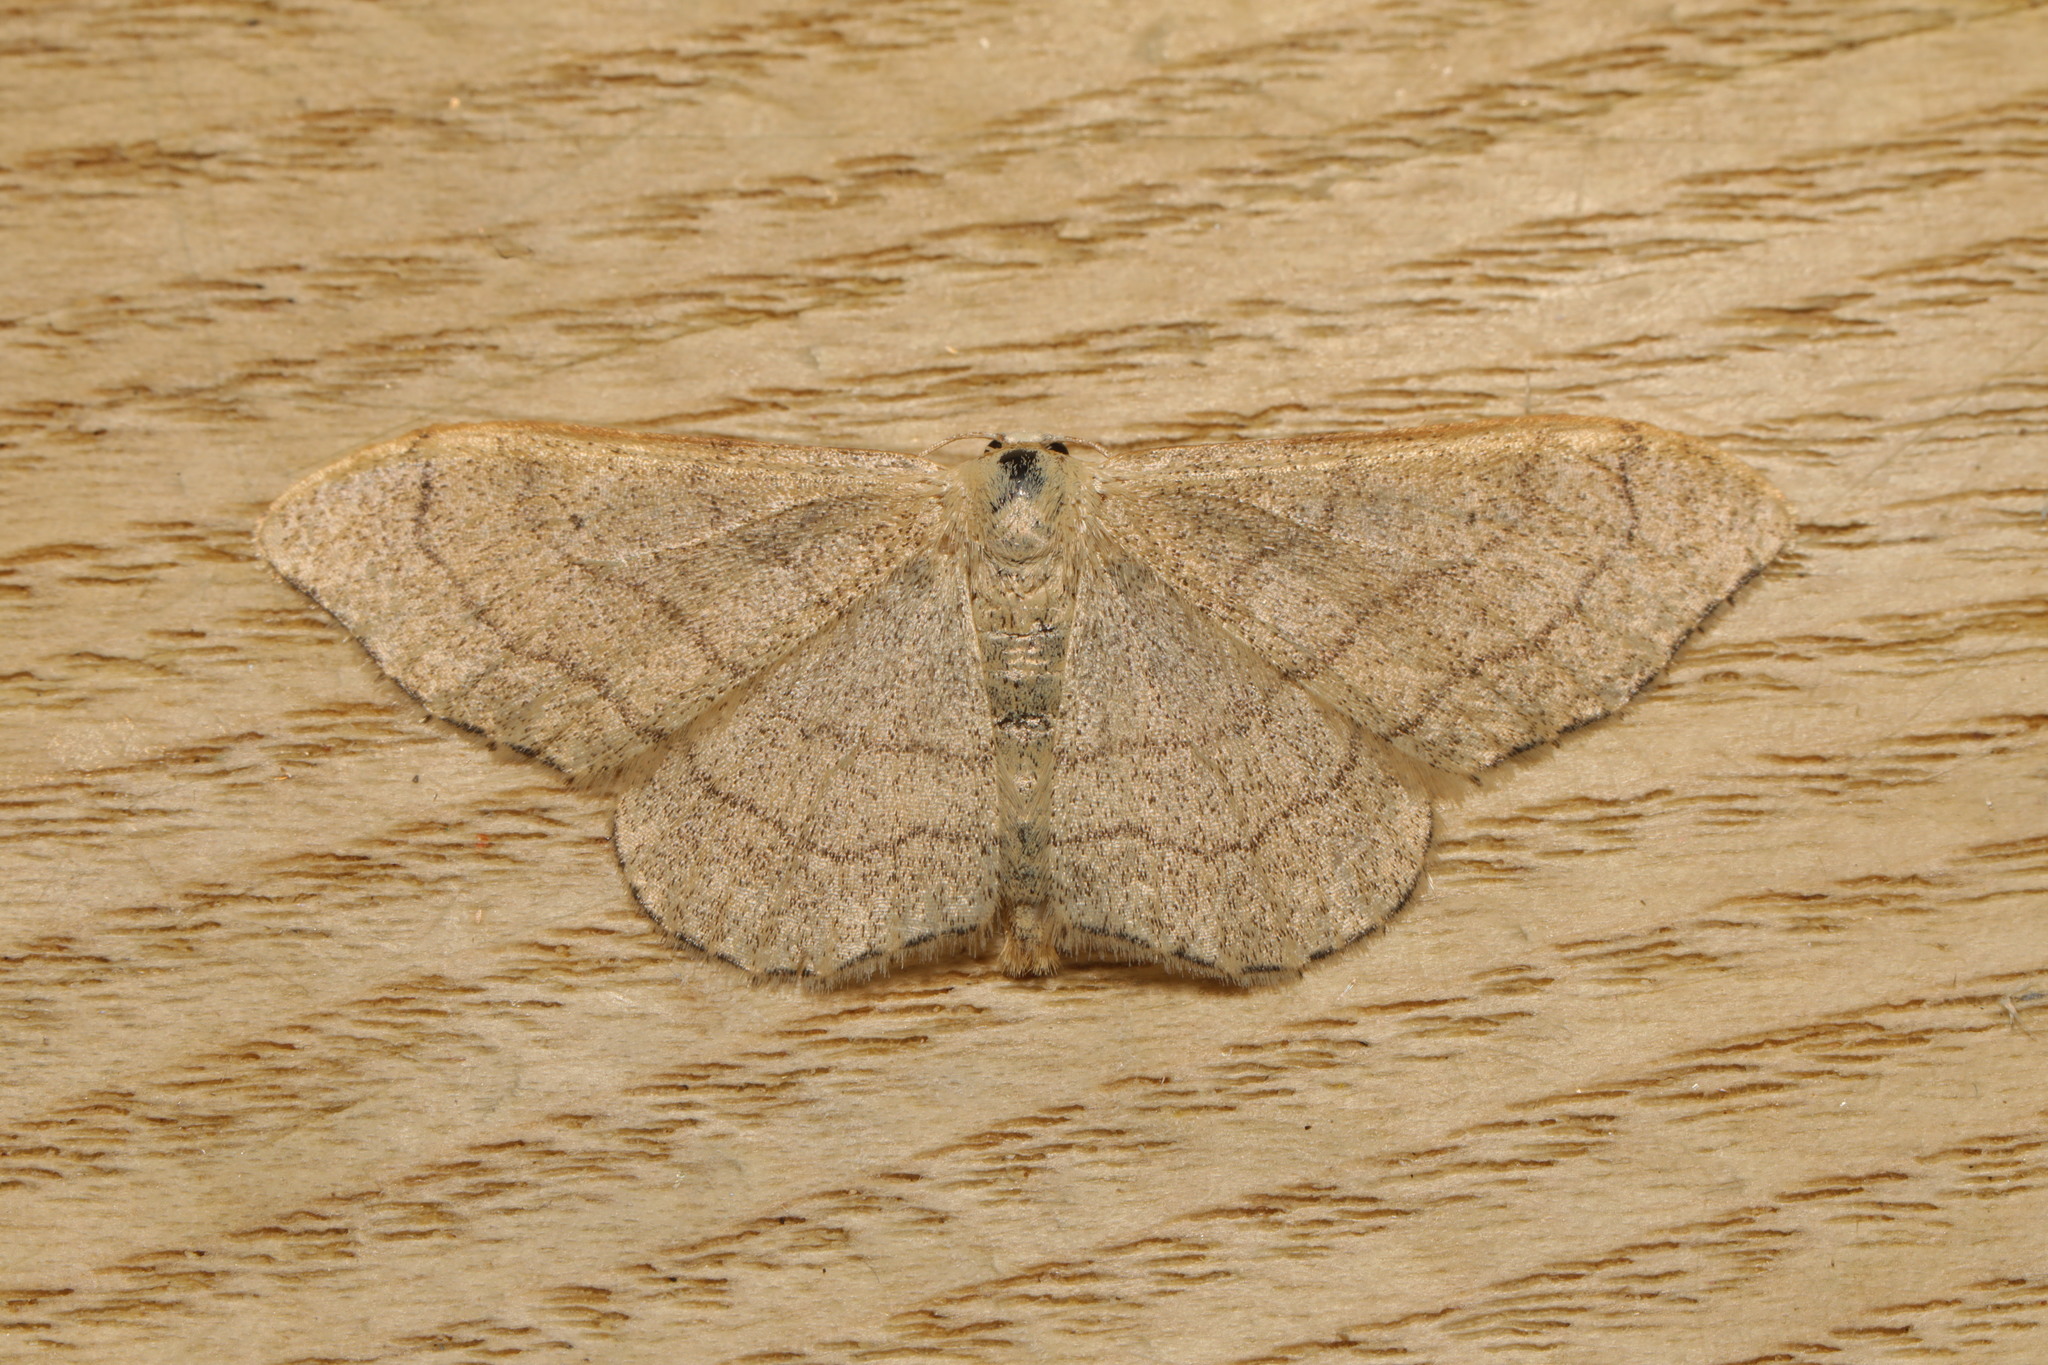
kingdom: Animalia
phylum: Arthropoda
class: Insecta
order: Lepidoptera
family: Geometridae
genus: Idaea
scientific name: Idaea aversata
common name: Riband wave
